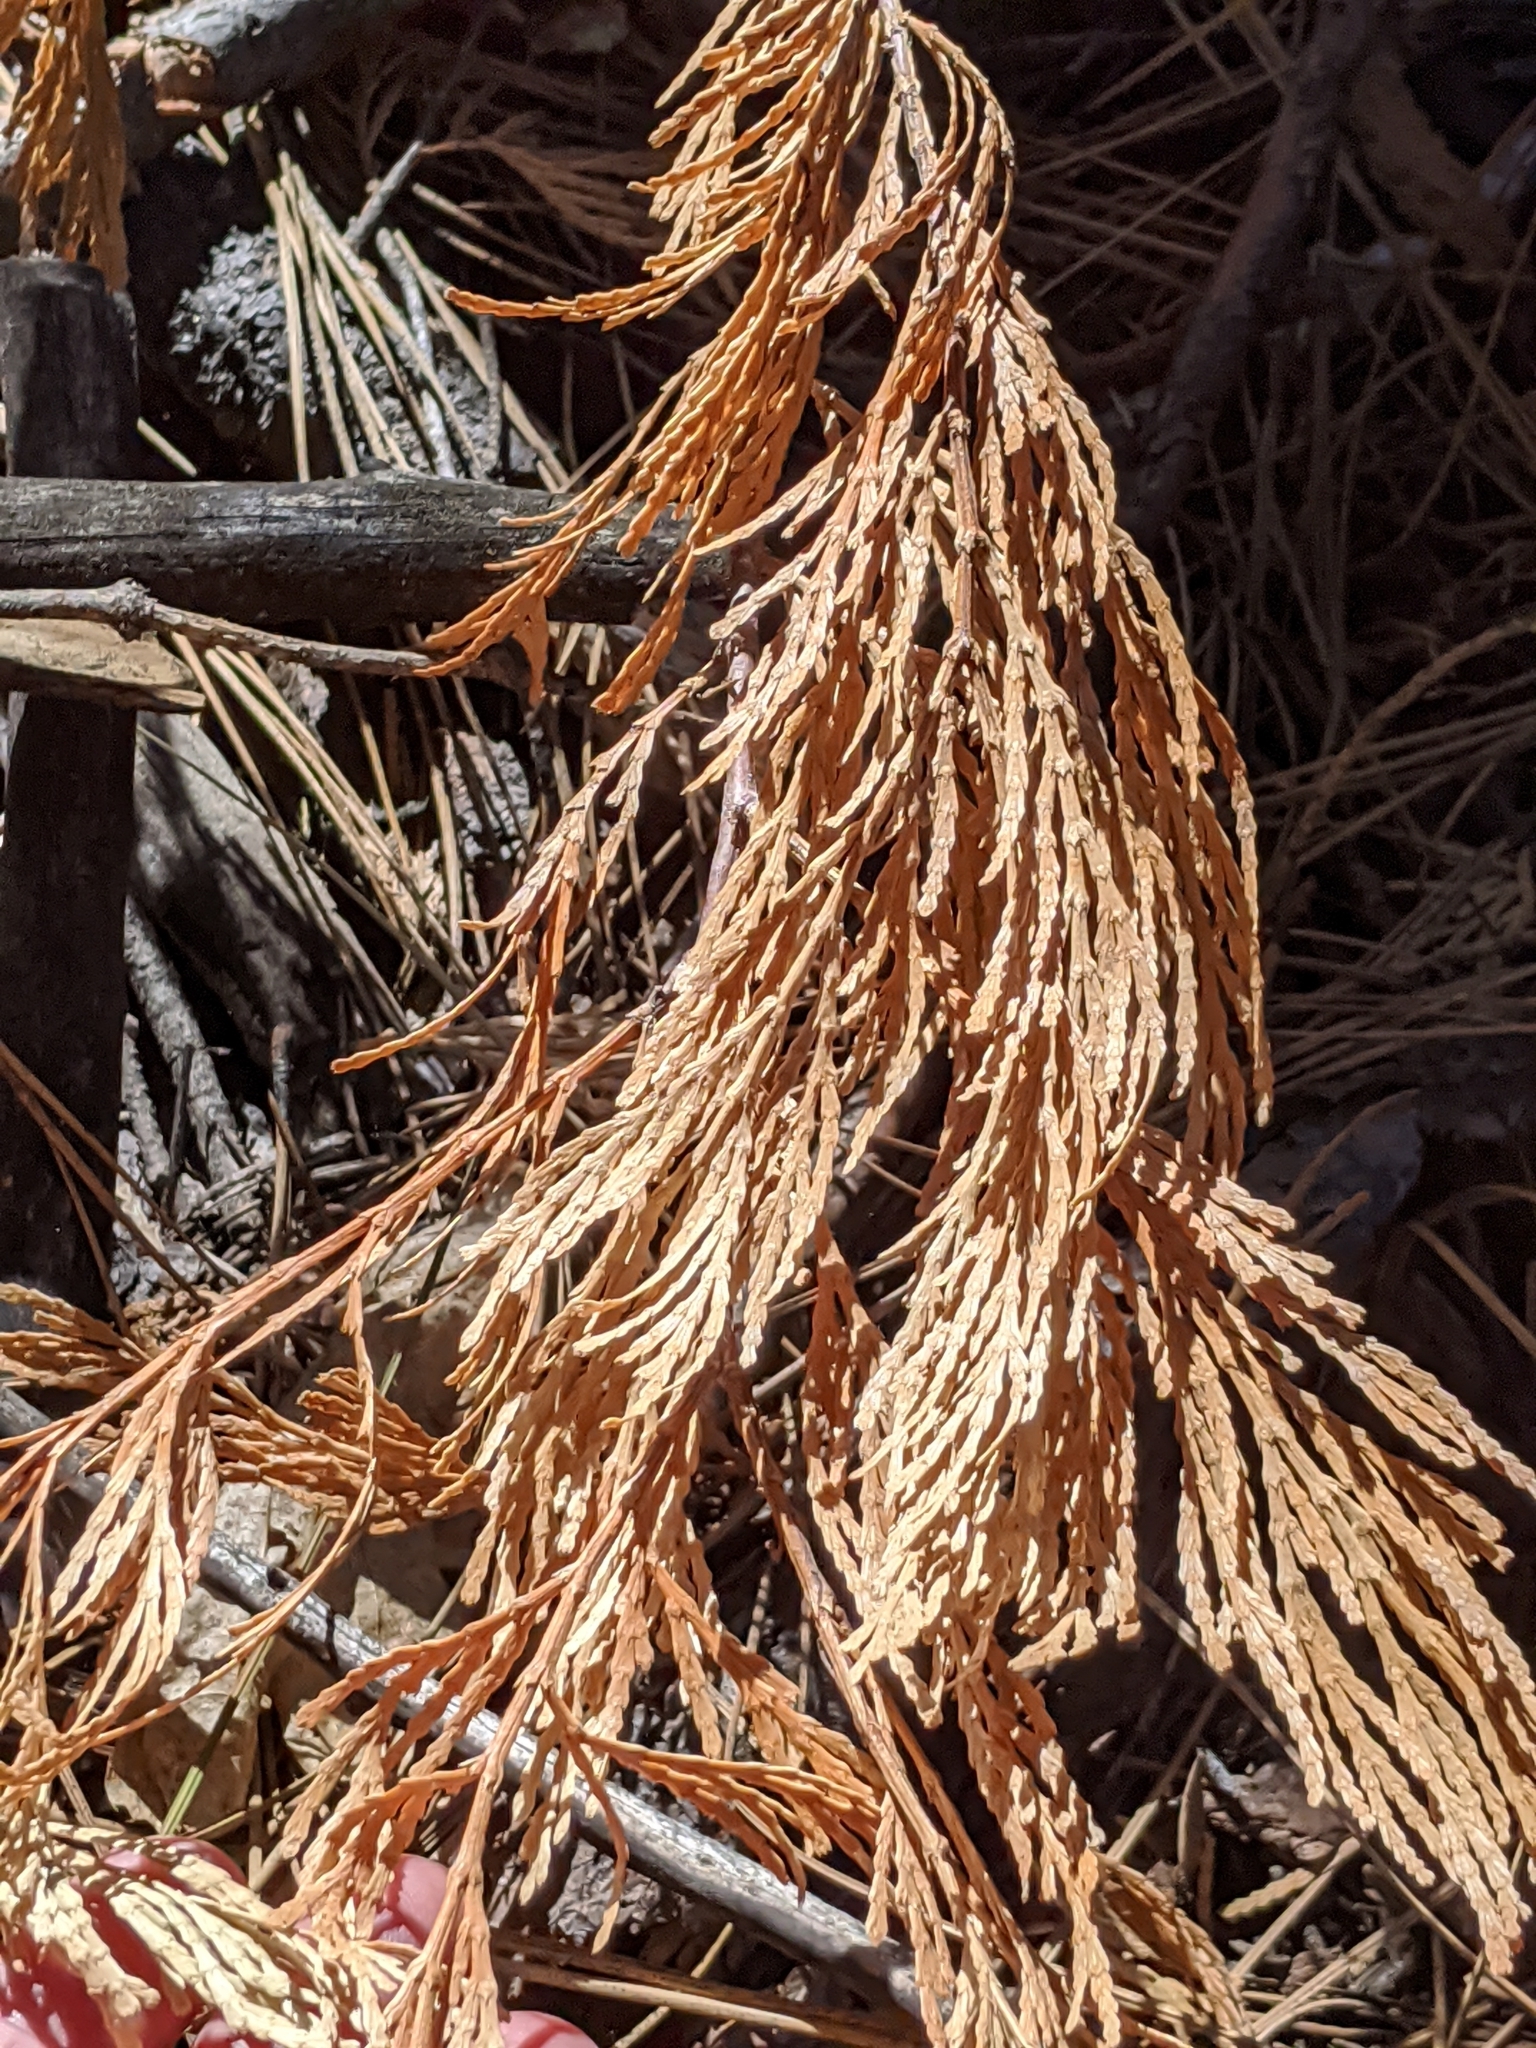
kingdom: Plantae
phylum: Tracheophyta
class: Pinopsida
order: Pinales
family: Cupressaceae
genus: Calocedrus
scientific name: Calocedrus decurrens
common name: Californian incense-cedar
